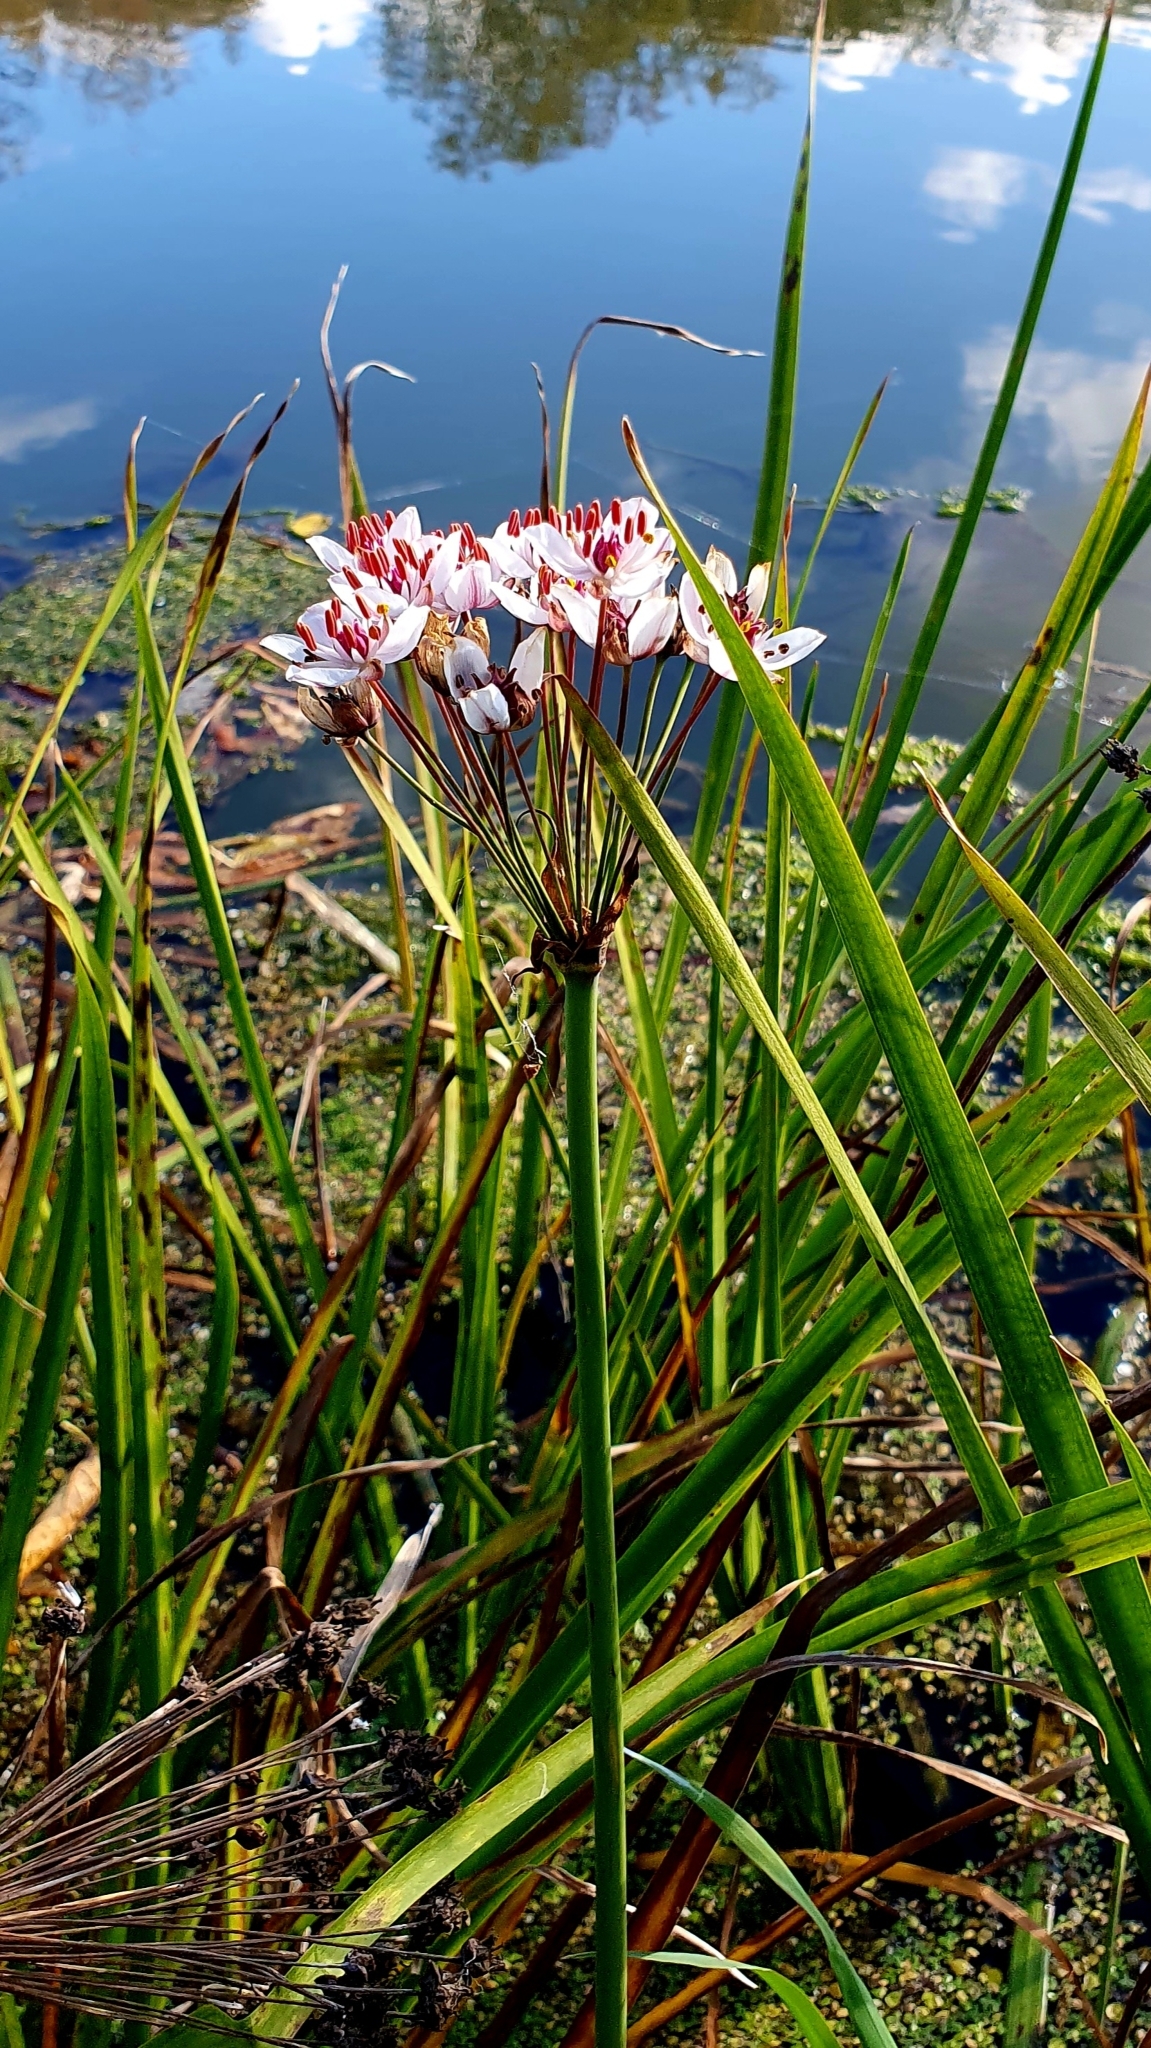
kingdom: Plantae
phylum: Tracheophyta
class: Liliopsida
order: Alismatales
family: Butomaceae
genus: Butomus
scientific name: Butomus umbellatus
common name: Flowering-rush
